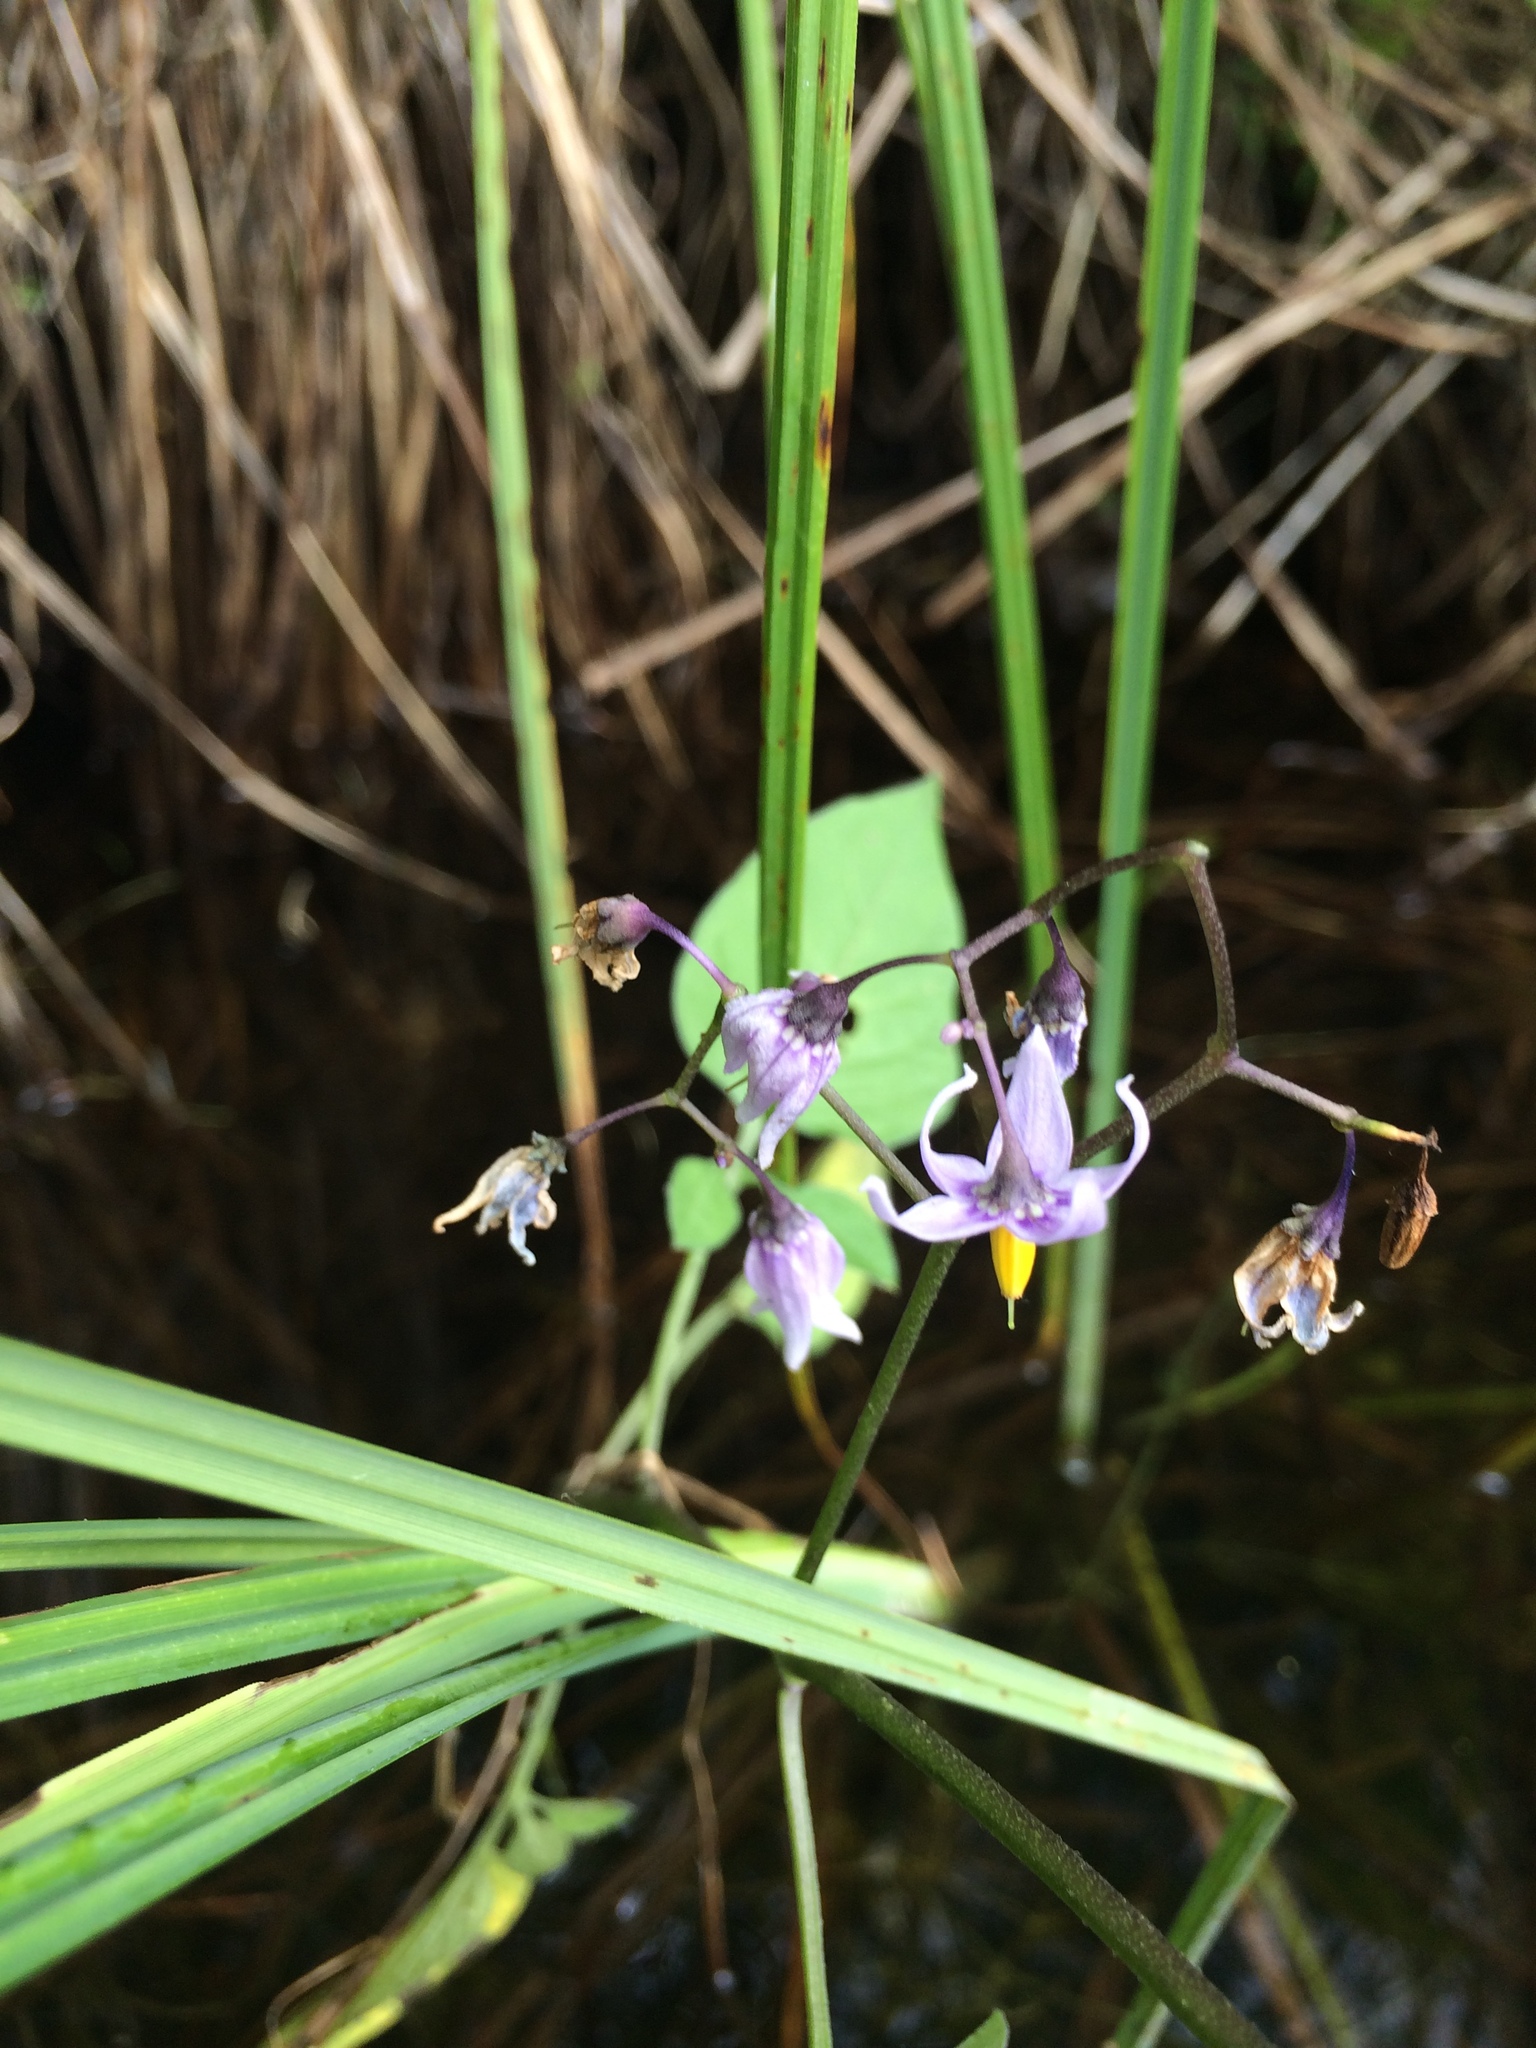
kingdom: Plantae
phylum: Tracheophyta
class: Magnoliopsida
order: Solanales
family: Solanaceae
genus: Solanum
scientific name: Solanum dulcamara
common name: Climbing nightshade
